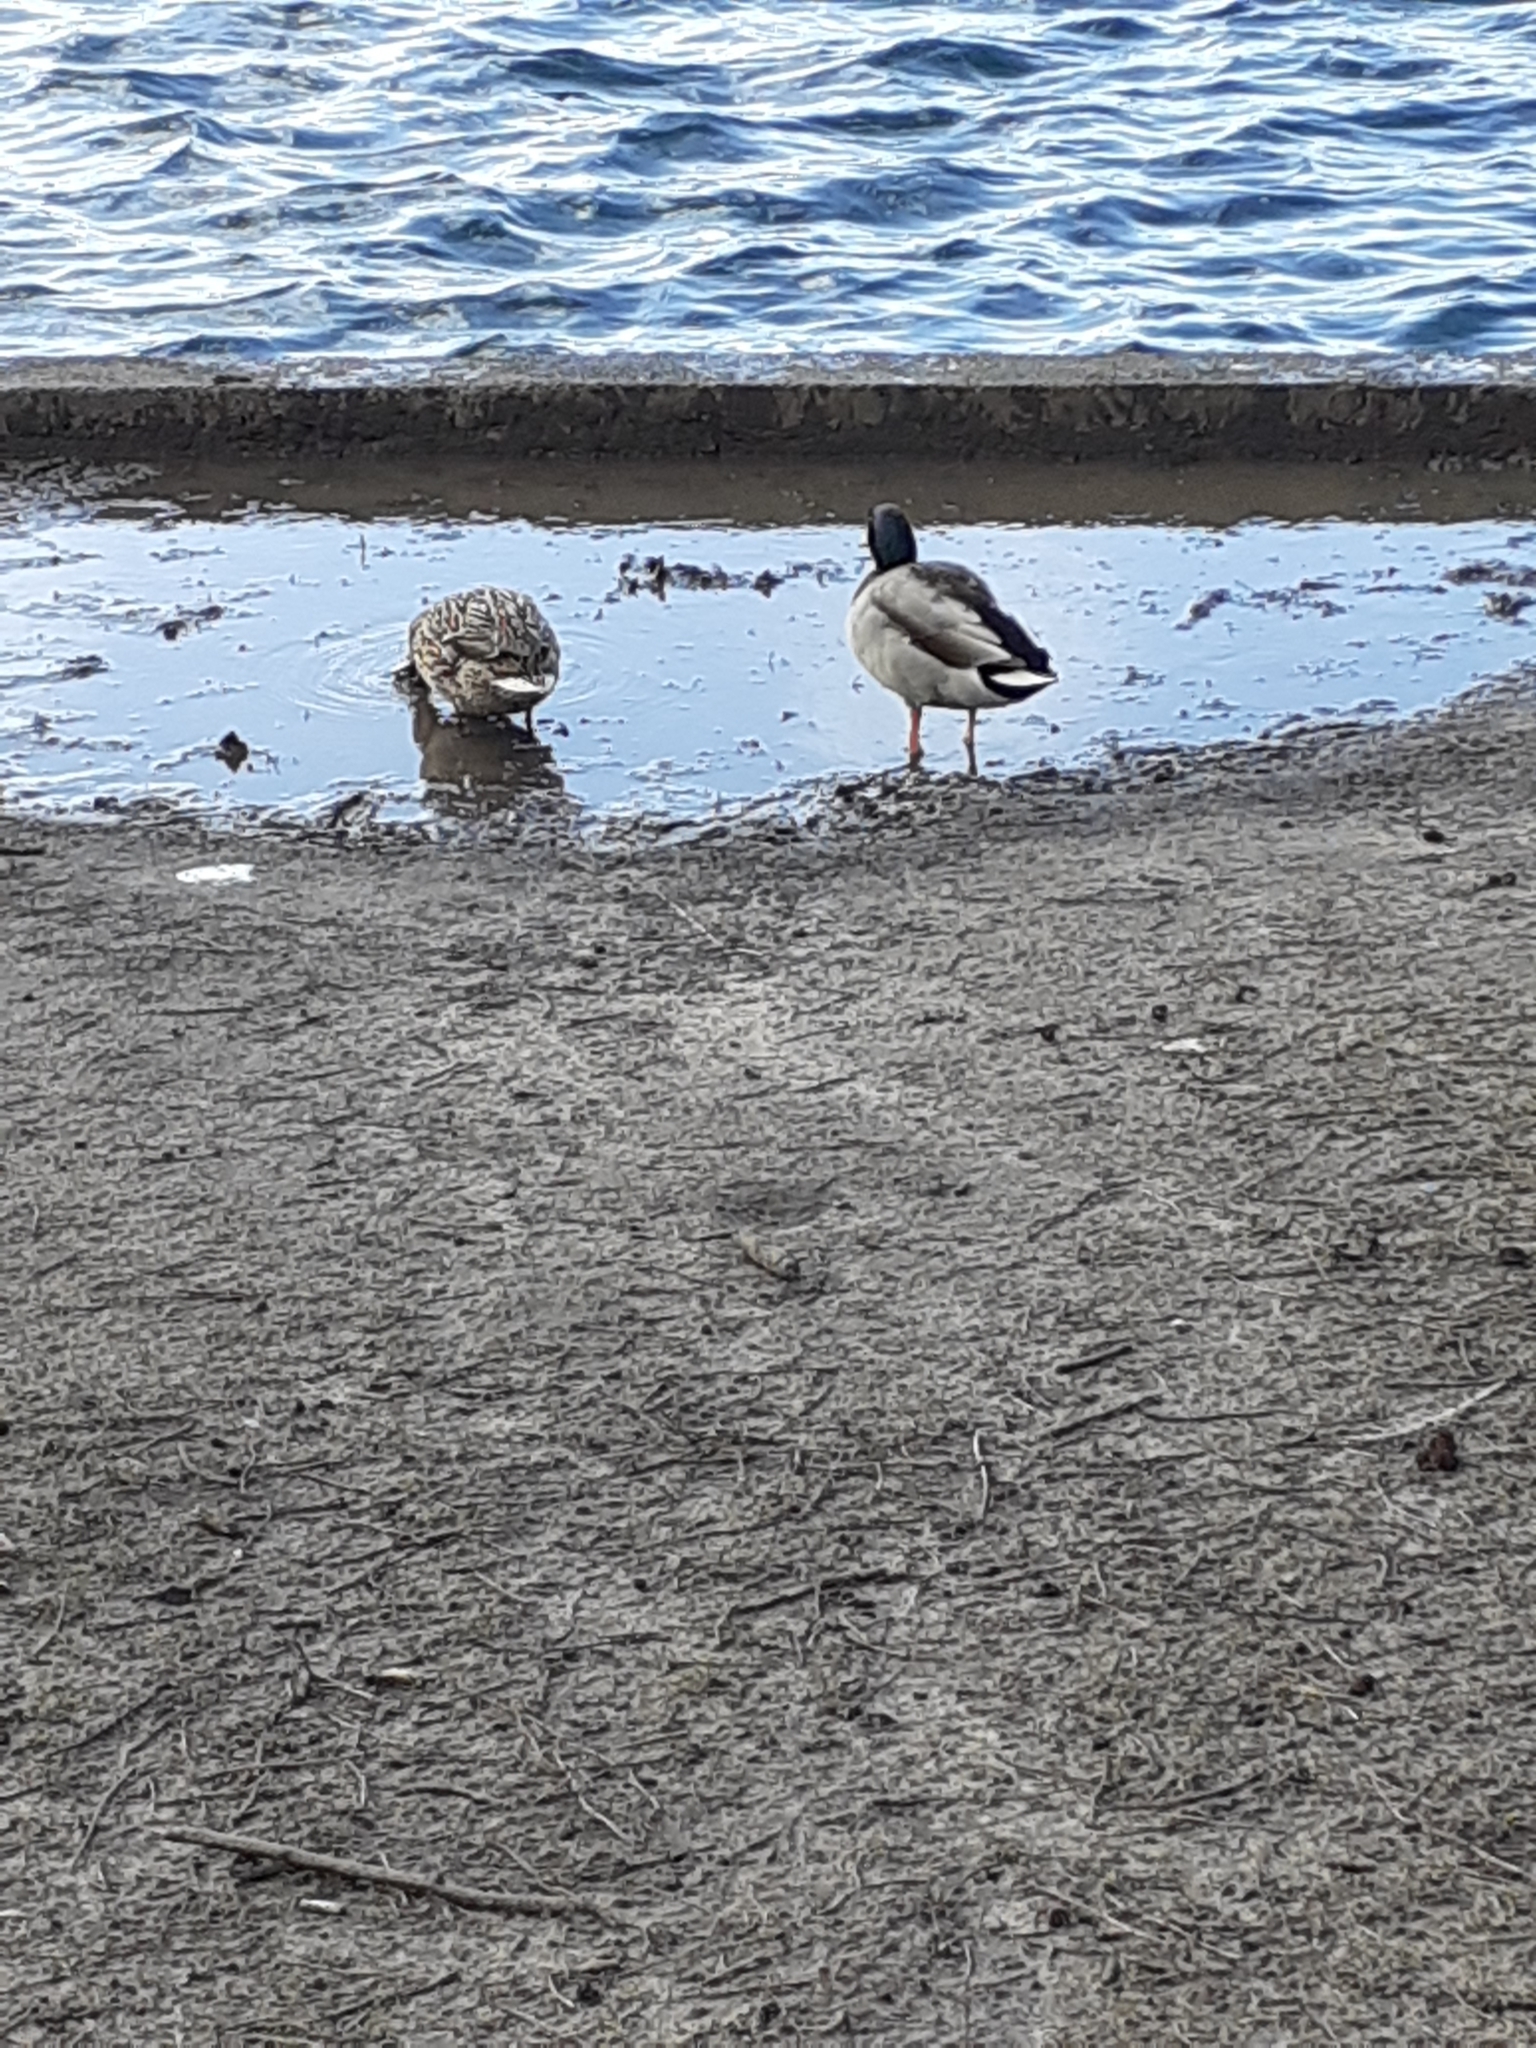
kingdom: Animalia
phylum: Chordata
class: Aves
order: Anseriformes
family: Anatidae
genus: Anas
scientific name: Anas platyrhynchos
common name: Mallard
